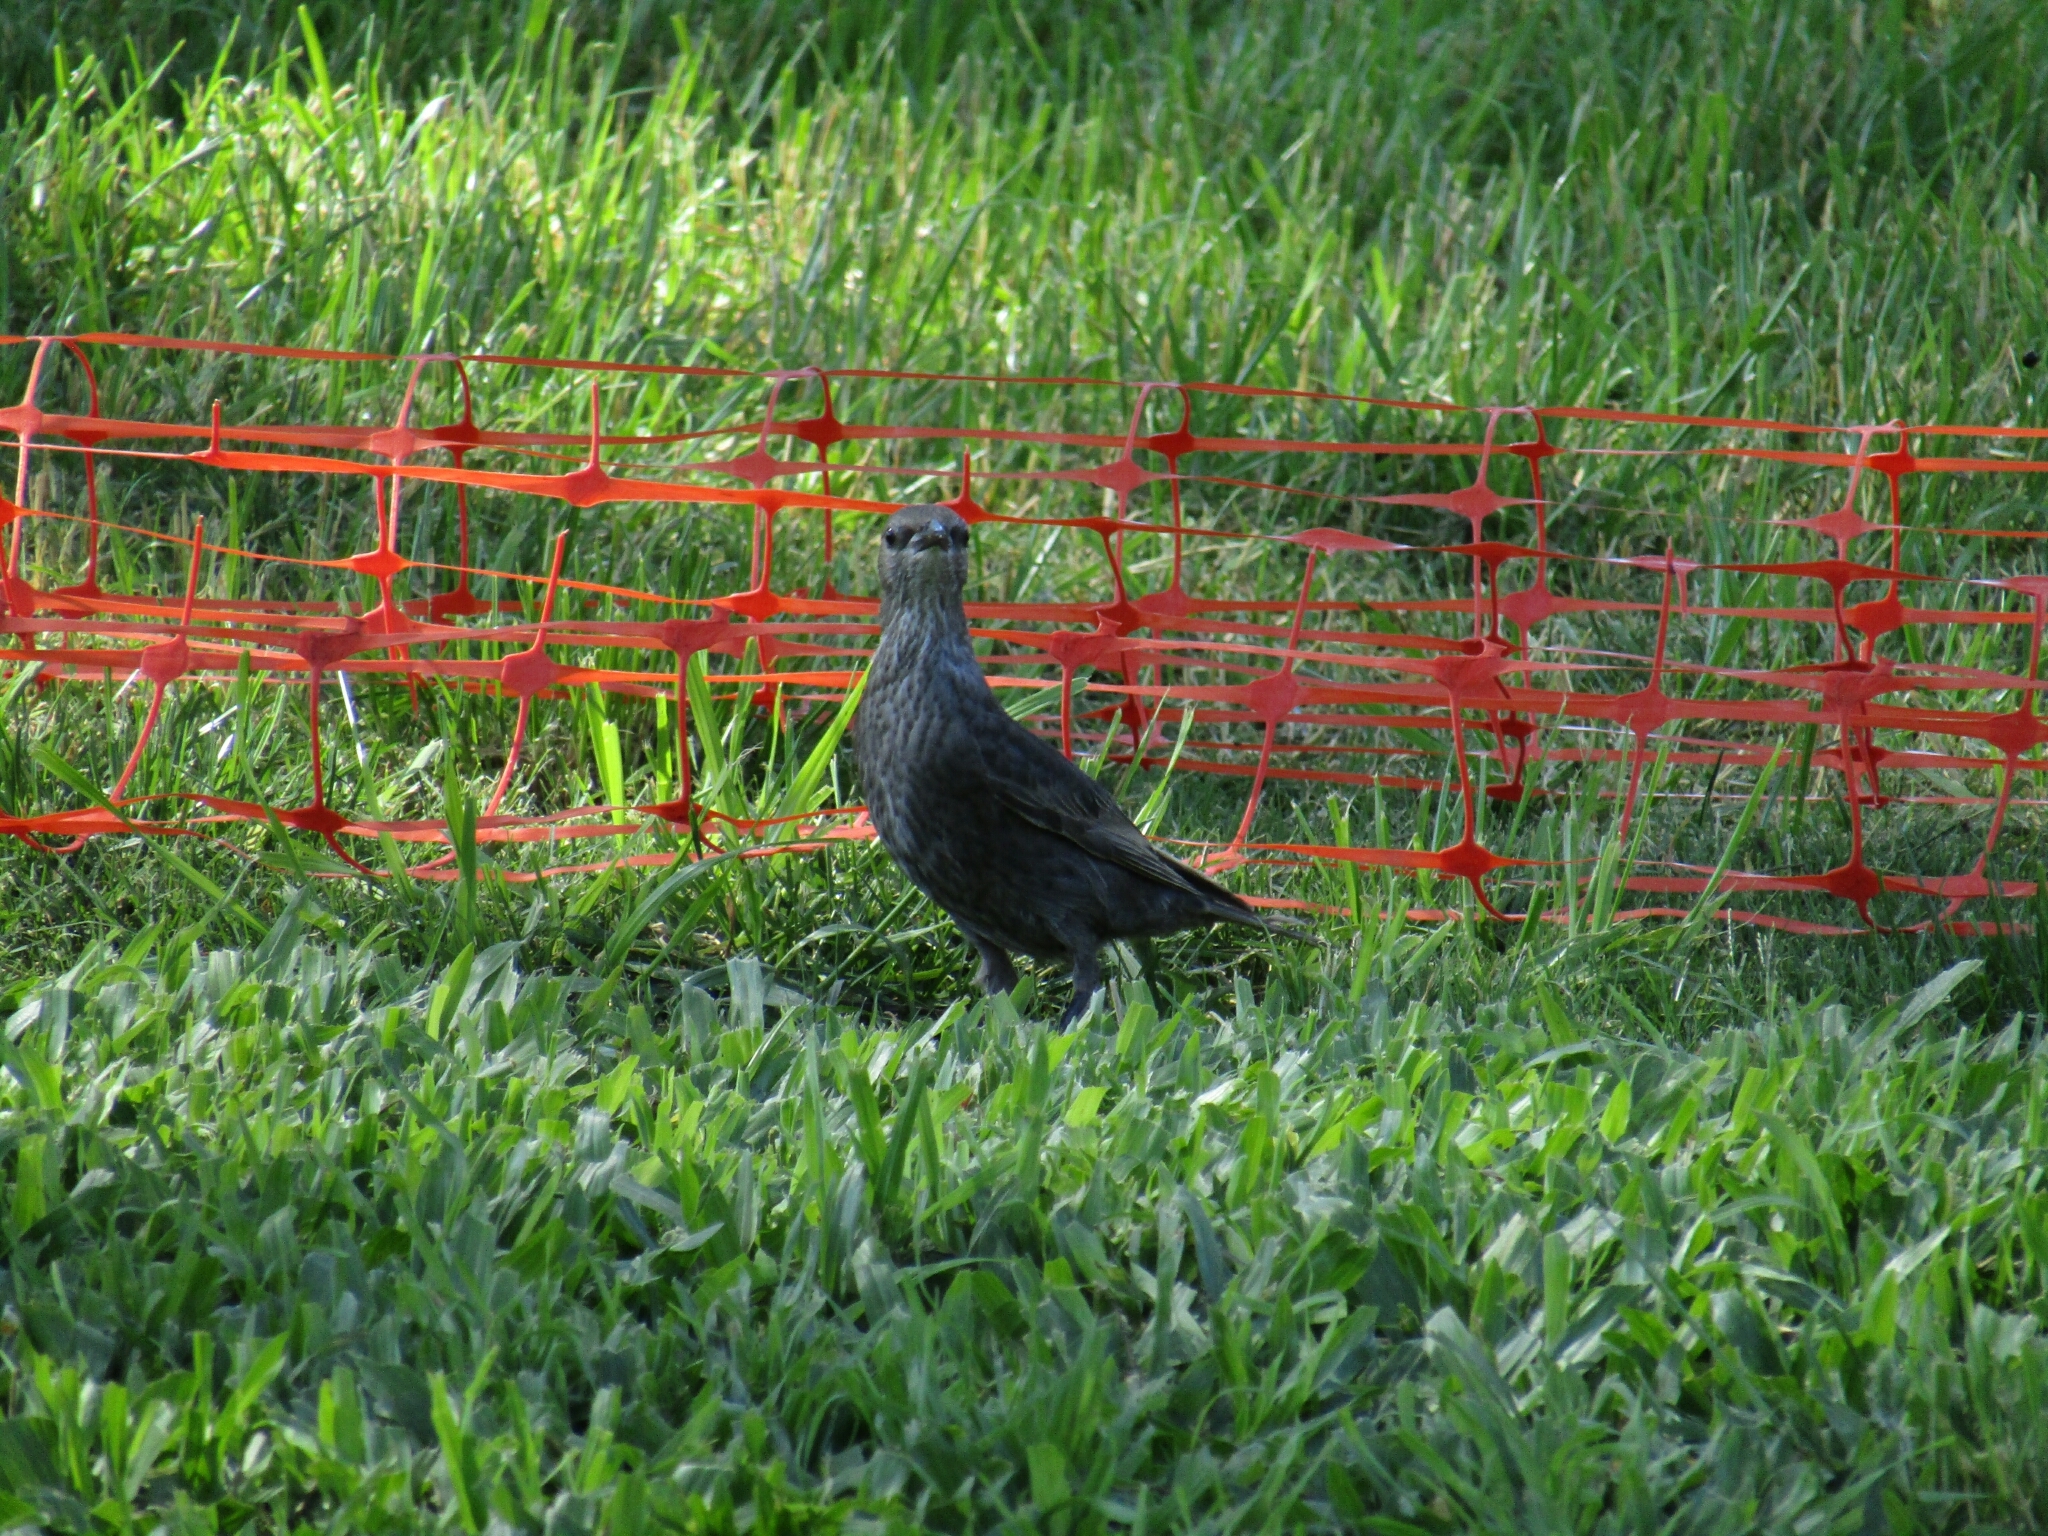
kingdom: Animalia
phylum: Chordata
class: Aves
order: Passeriformes
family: Sturnidae
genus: Sturnus
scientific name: Sturnus vulgaris
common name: Common starling
